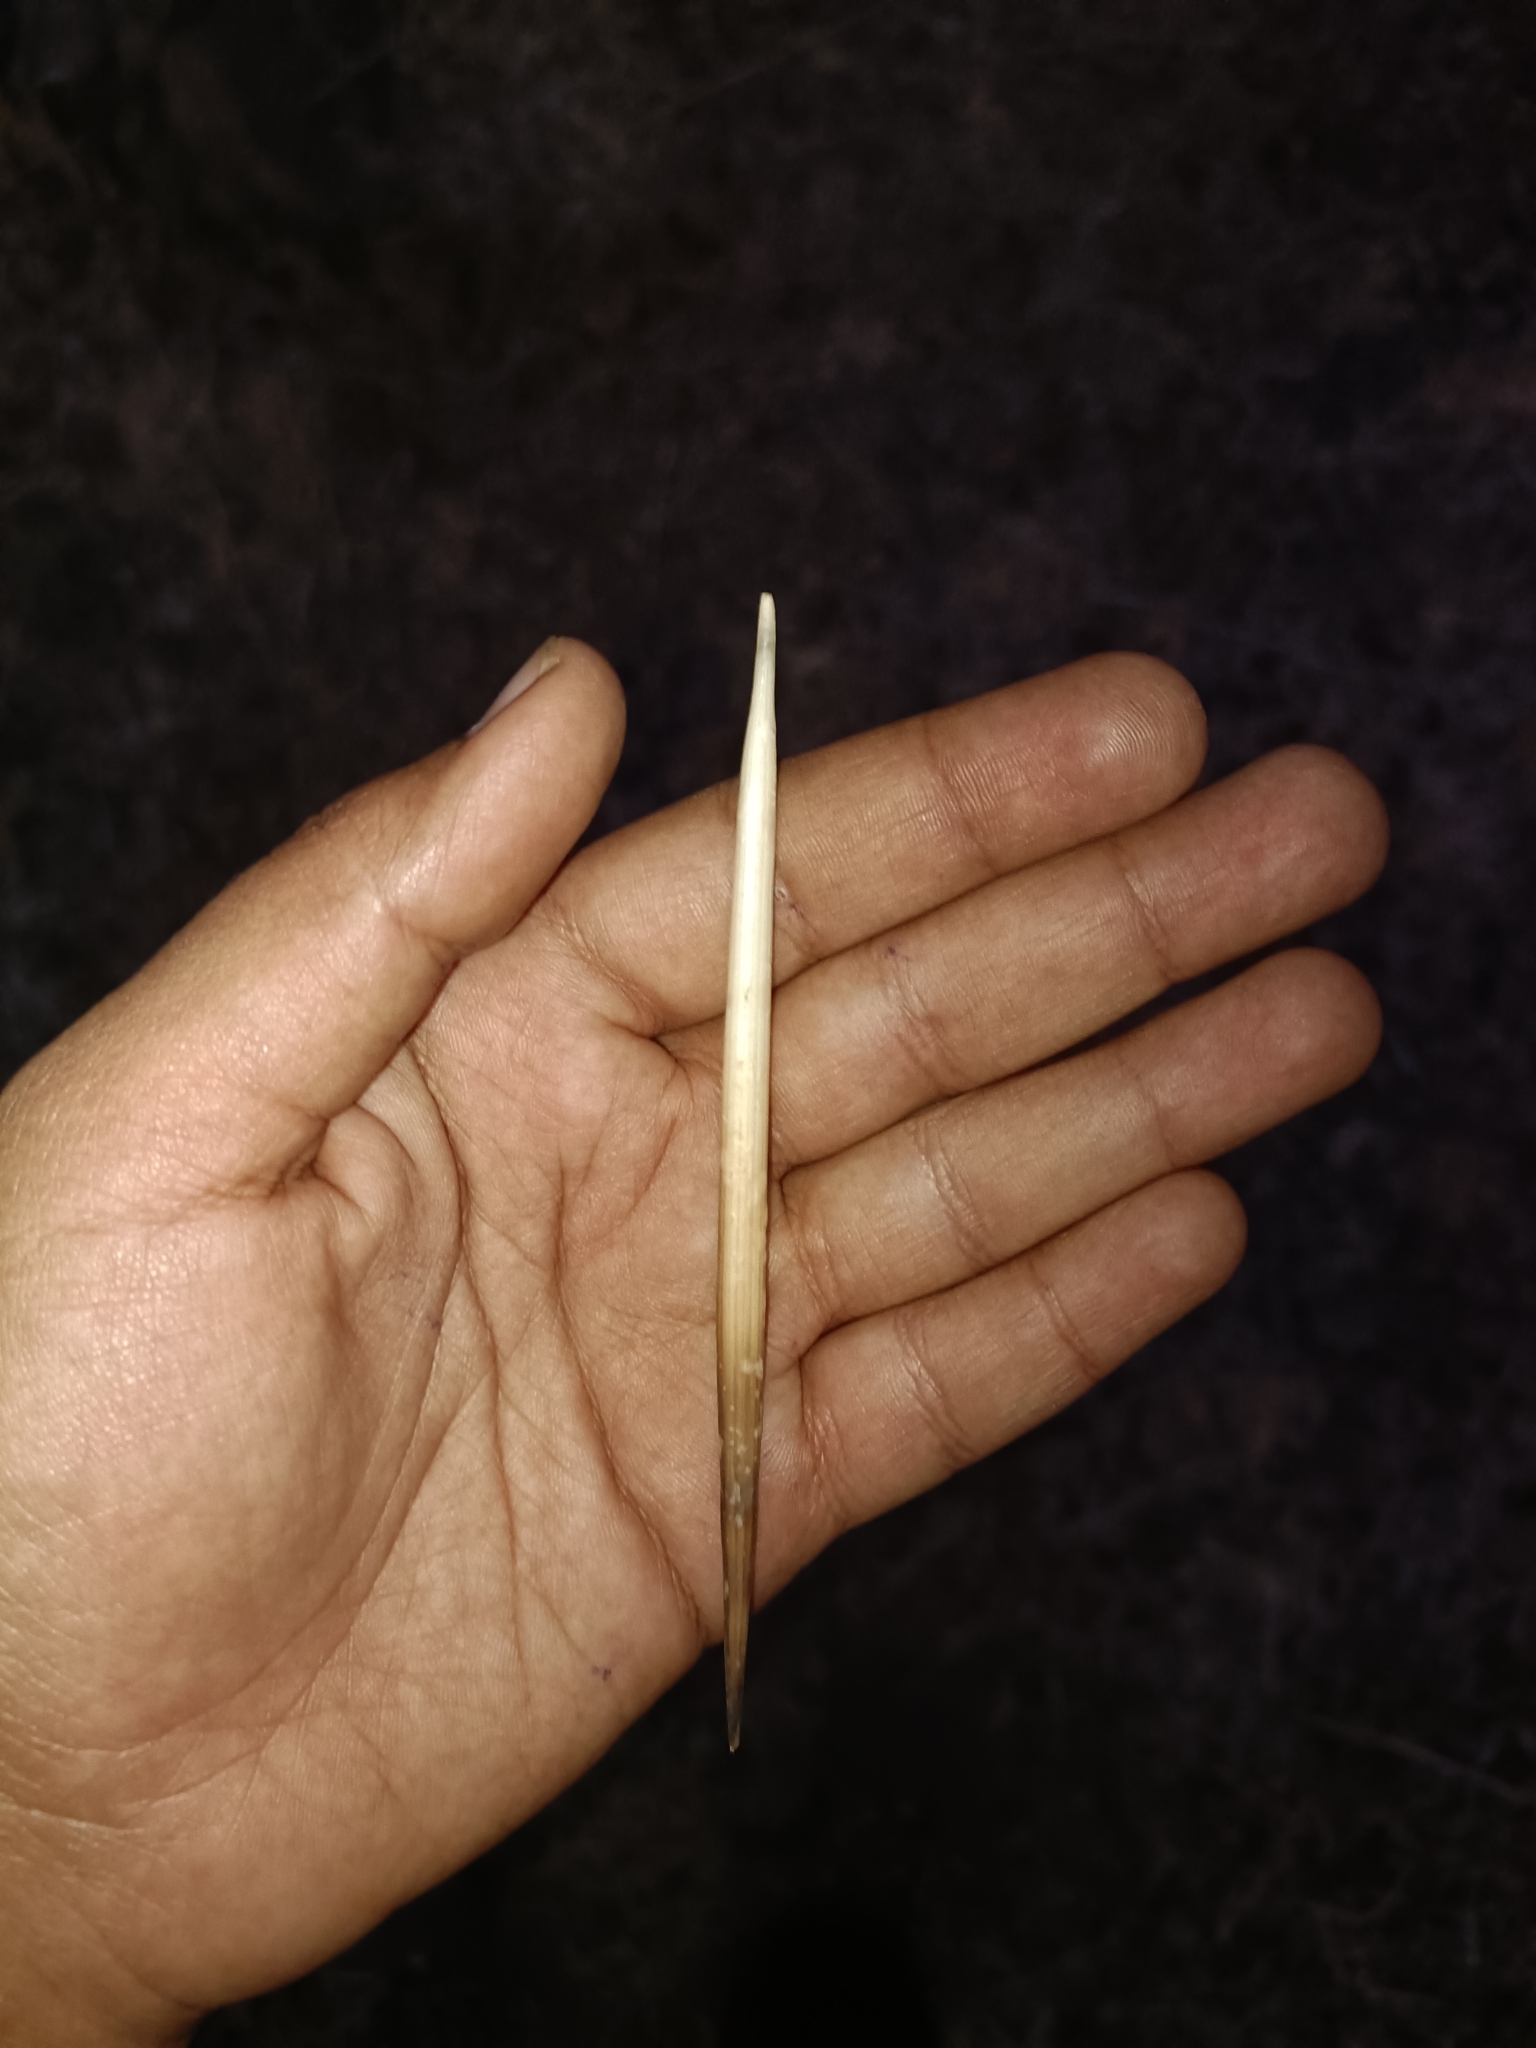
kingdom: Animalia
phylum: Chordata
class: Mammalia
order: Rodentia
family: Hystricidae
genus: Hystrix
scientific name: Hystrix indica
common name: Indian crested porcupine
